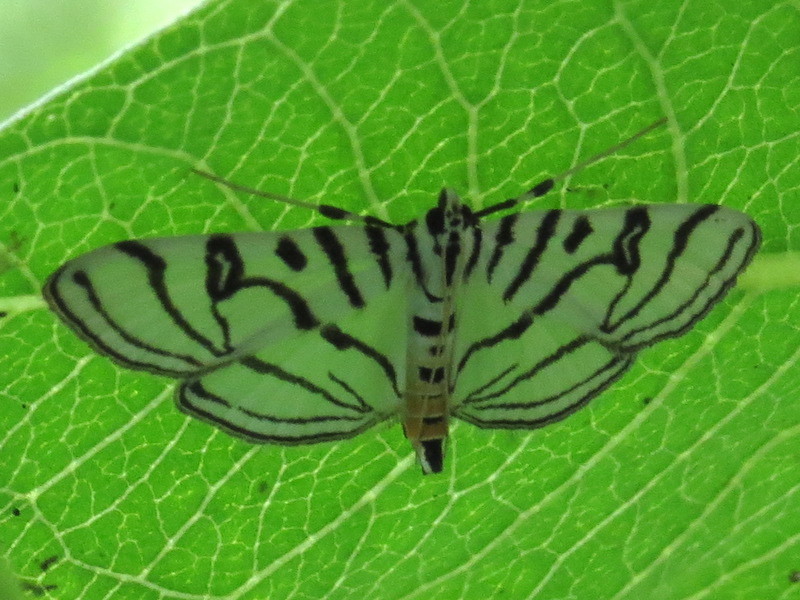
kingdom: Animalia
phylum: Arthropoda
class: Insecta
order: Lepidoptera
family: Crambidae
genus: Conchylodes
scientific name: Conchylodes ovulalis
